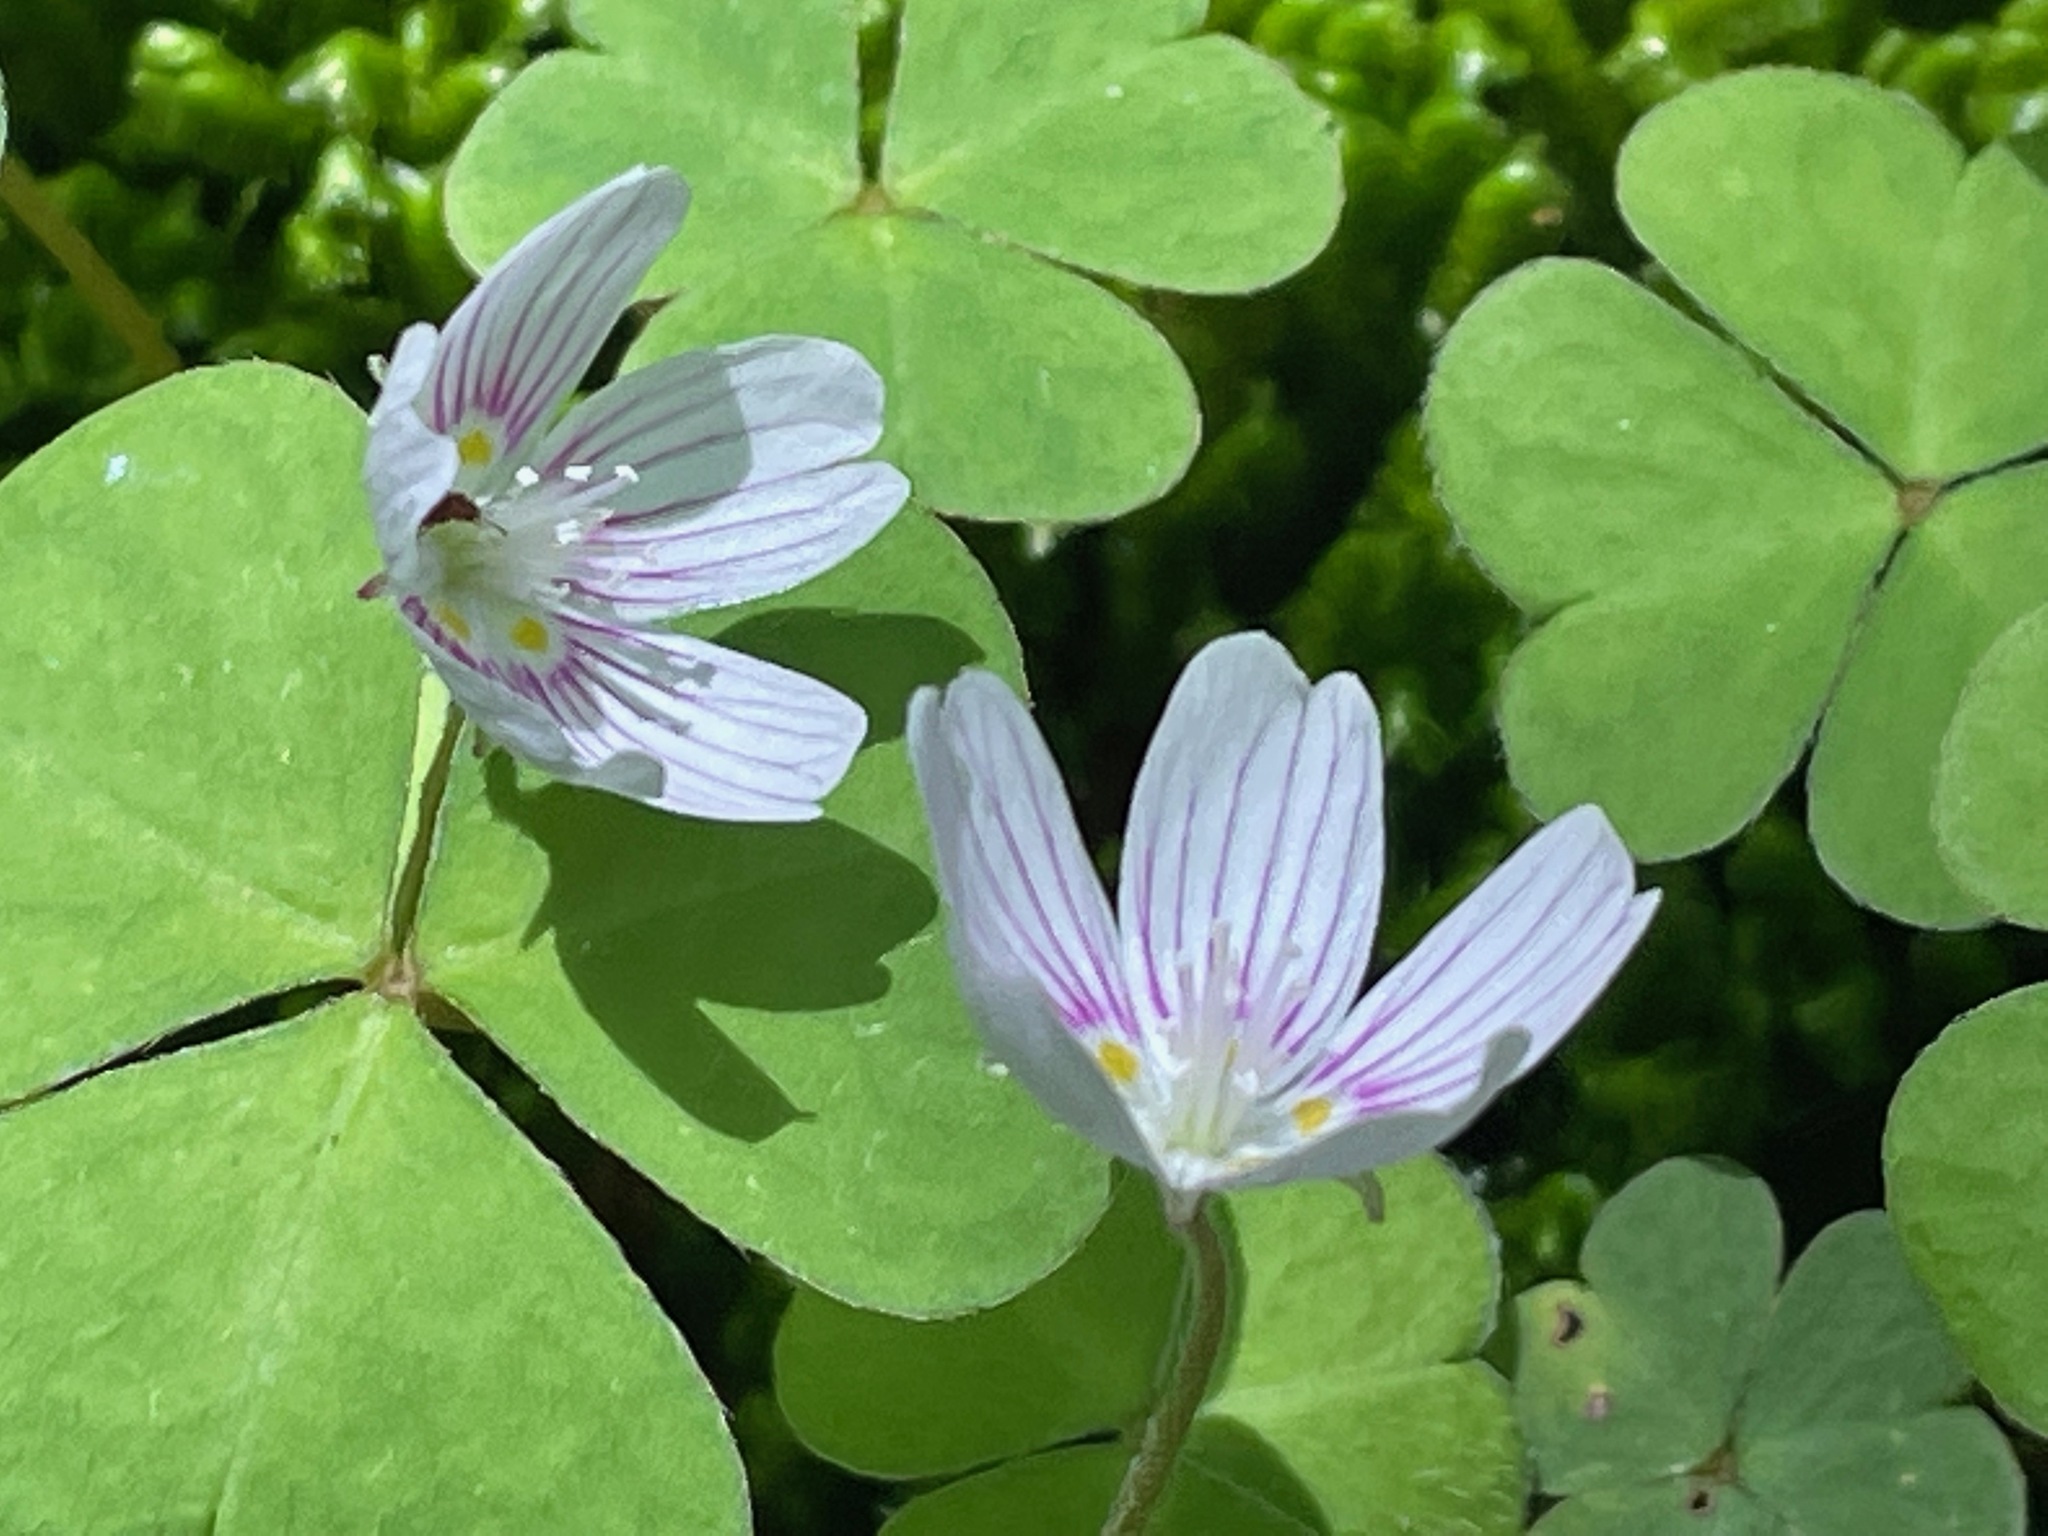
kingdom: Plantae
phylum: Tracheophyta
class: Magnoliopsida
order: Oxalidales
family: Oxalidaceae
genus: Oxalis
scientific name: Oxalis montana
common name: American wood-sorrel
